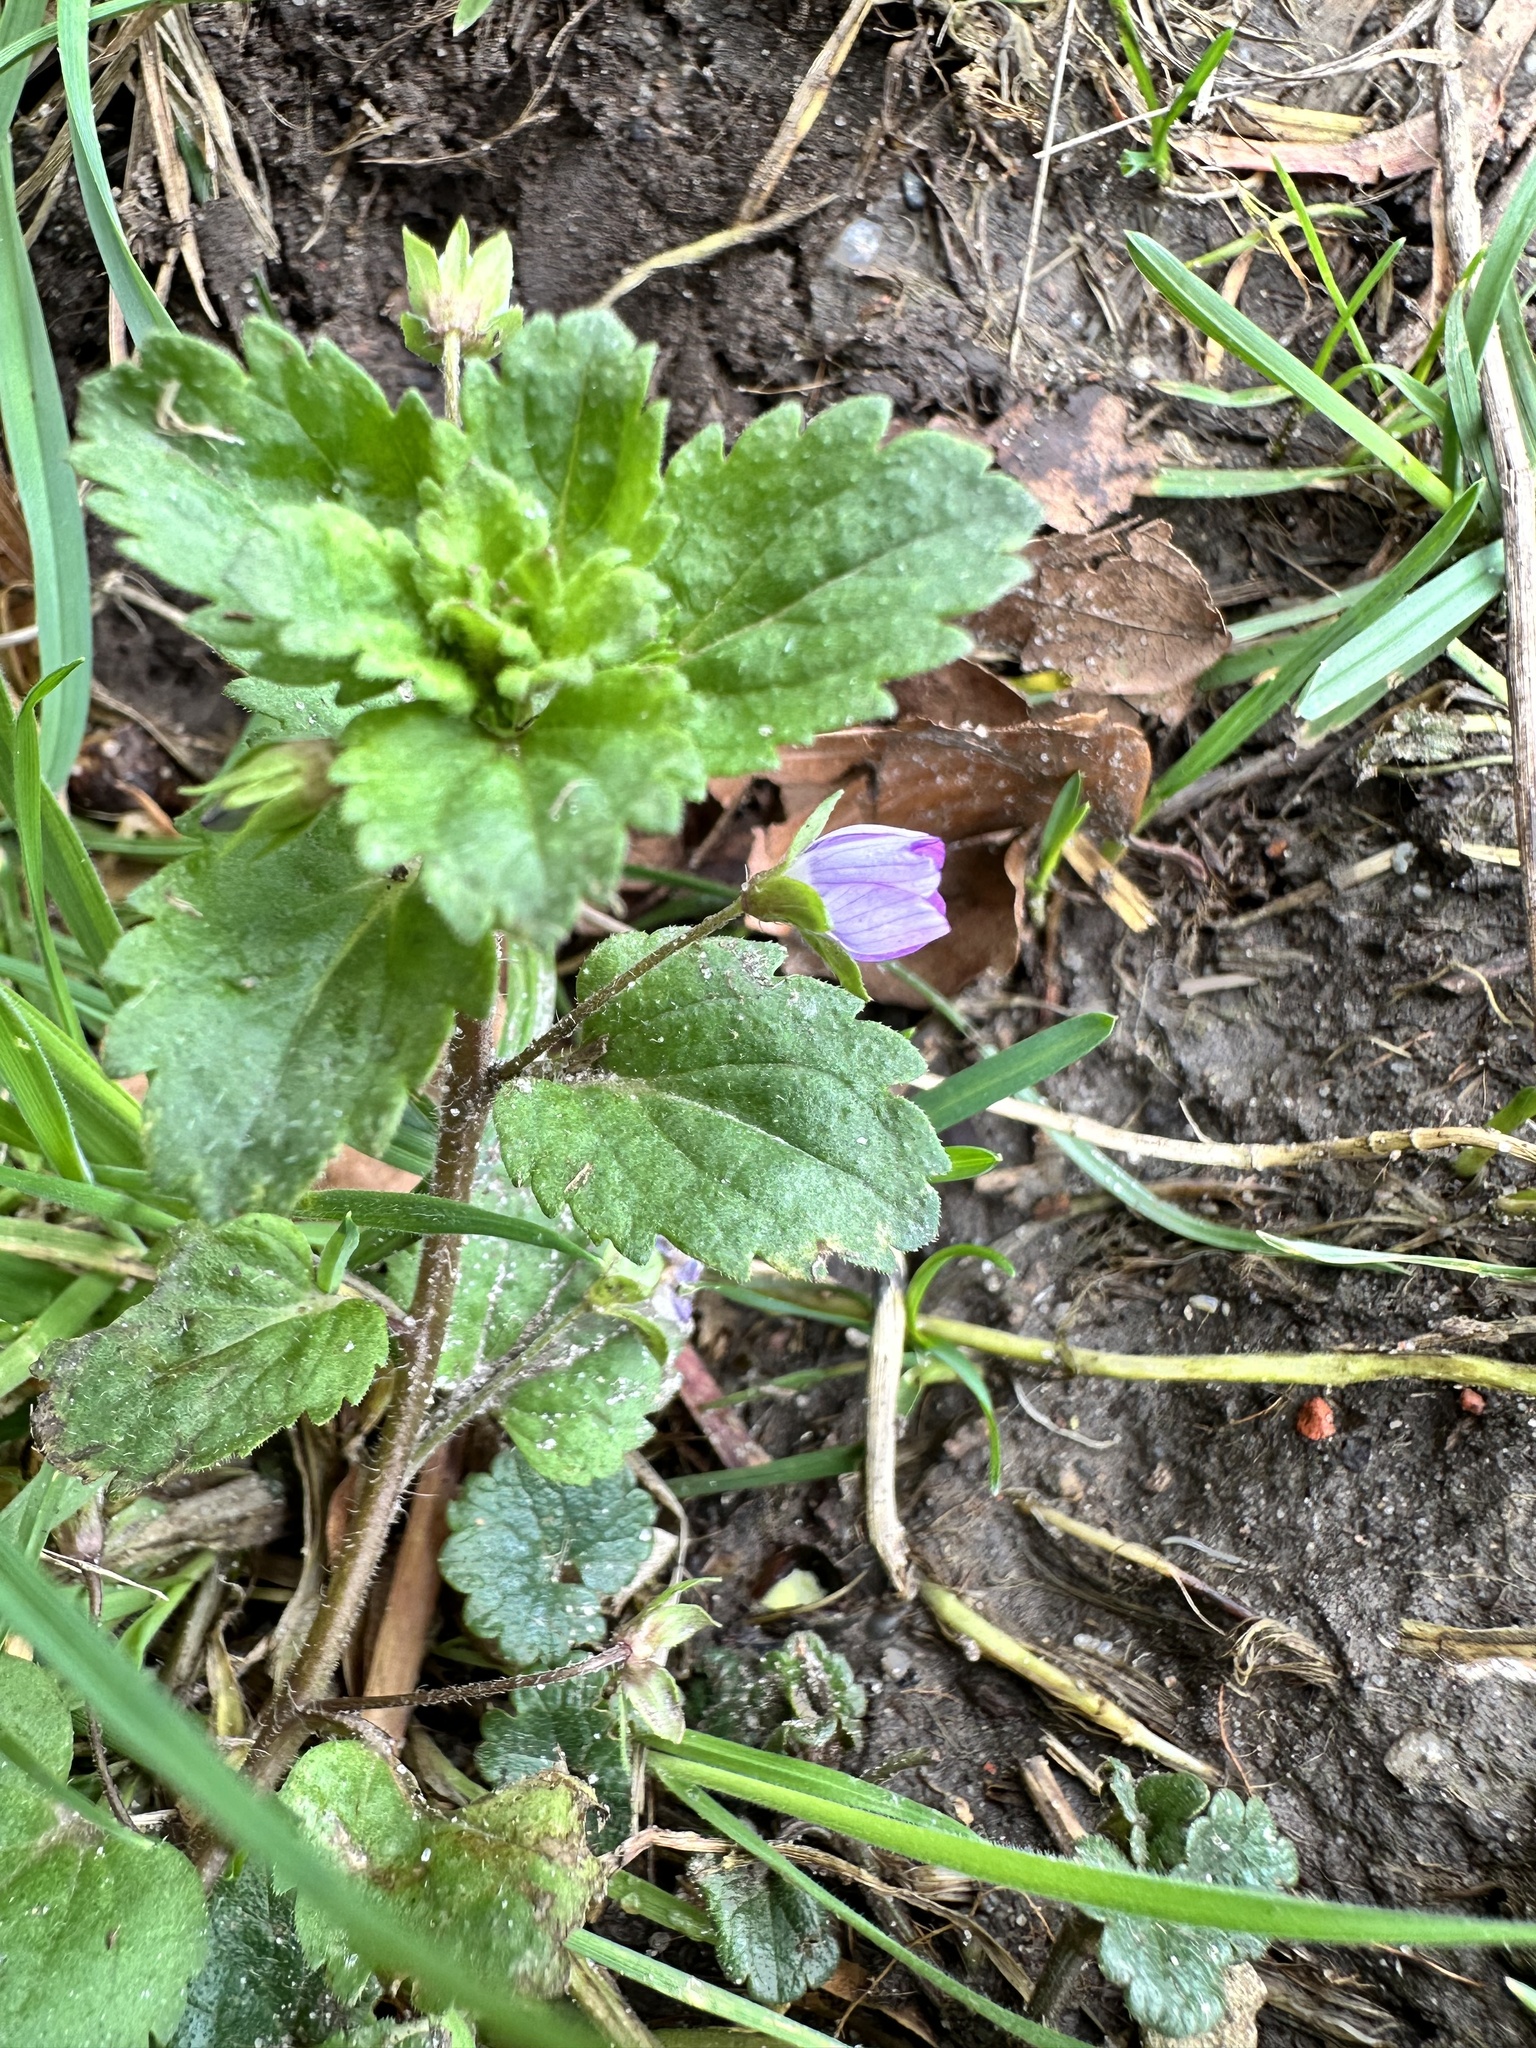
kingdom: Plantae
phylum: Tracheophyta
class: Magnoliopsida
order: Lamiales
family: Plantaginaceae
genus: Veronica
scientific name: Veronica persica
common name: Common field-speedwell
